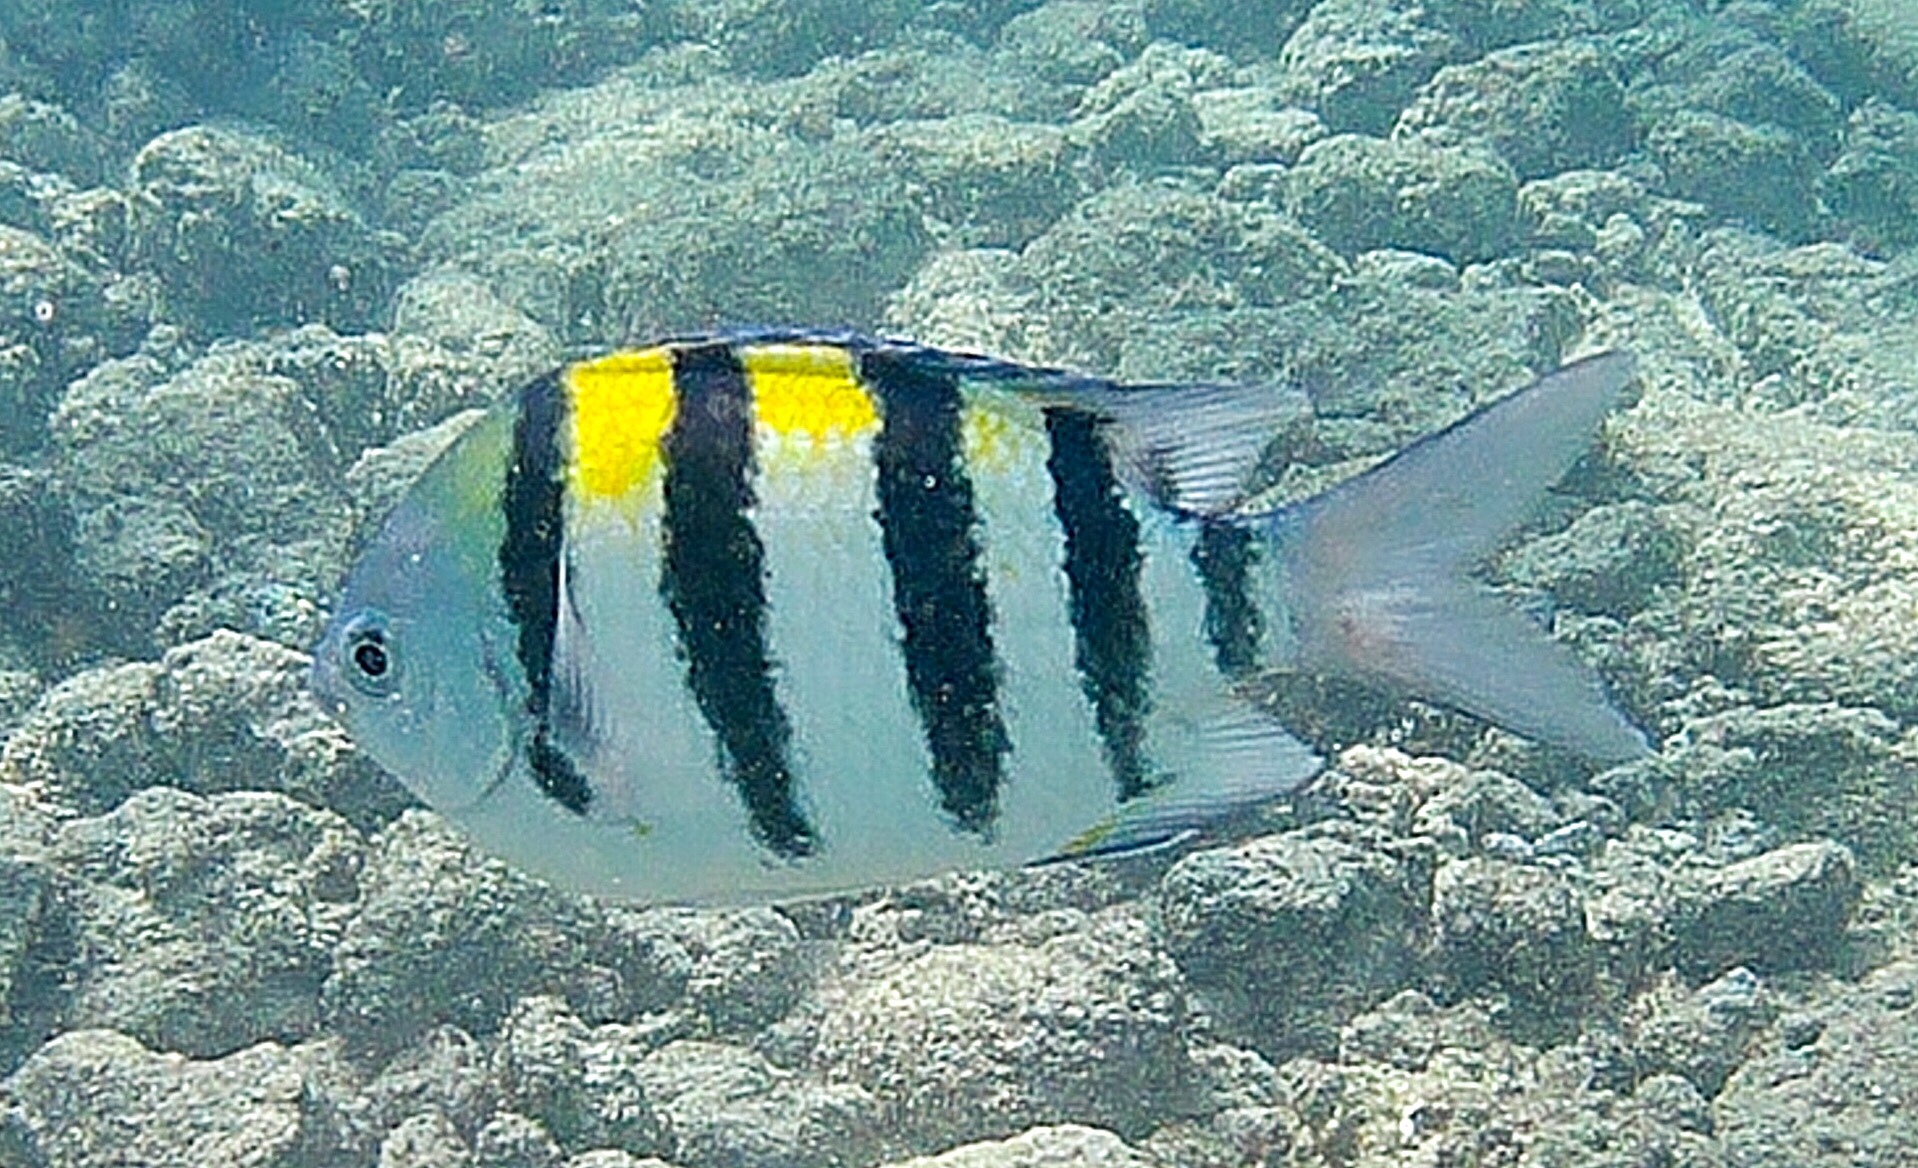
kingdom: Animalia
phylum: Chordata
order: Perciformes
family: Pomacentridae
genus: Abudefduf
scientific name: Abudefduf vaigiensis
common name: Indo-pacific sergeant
